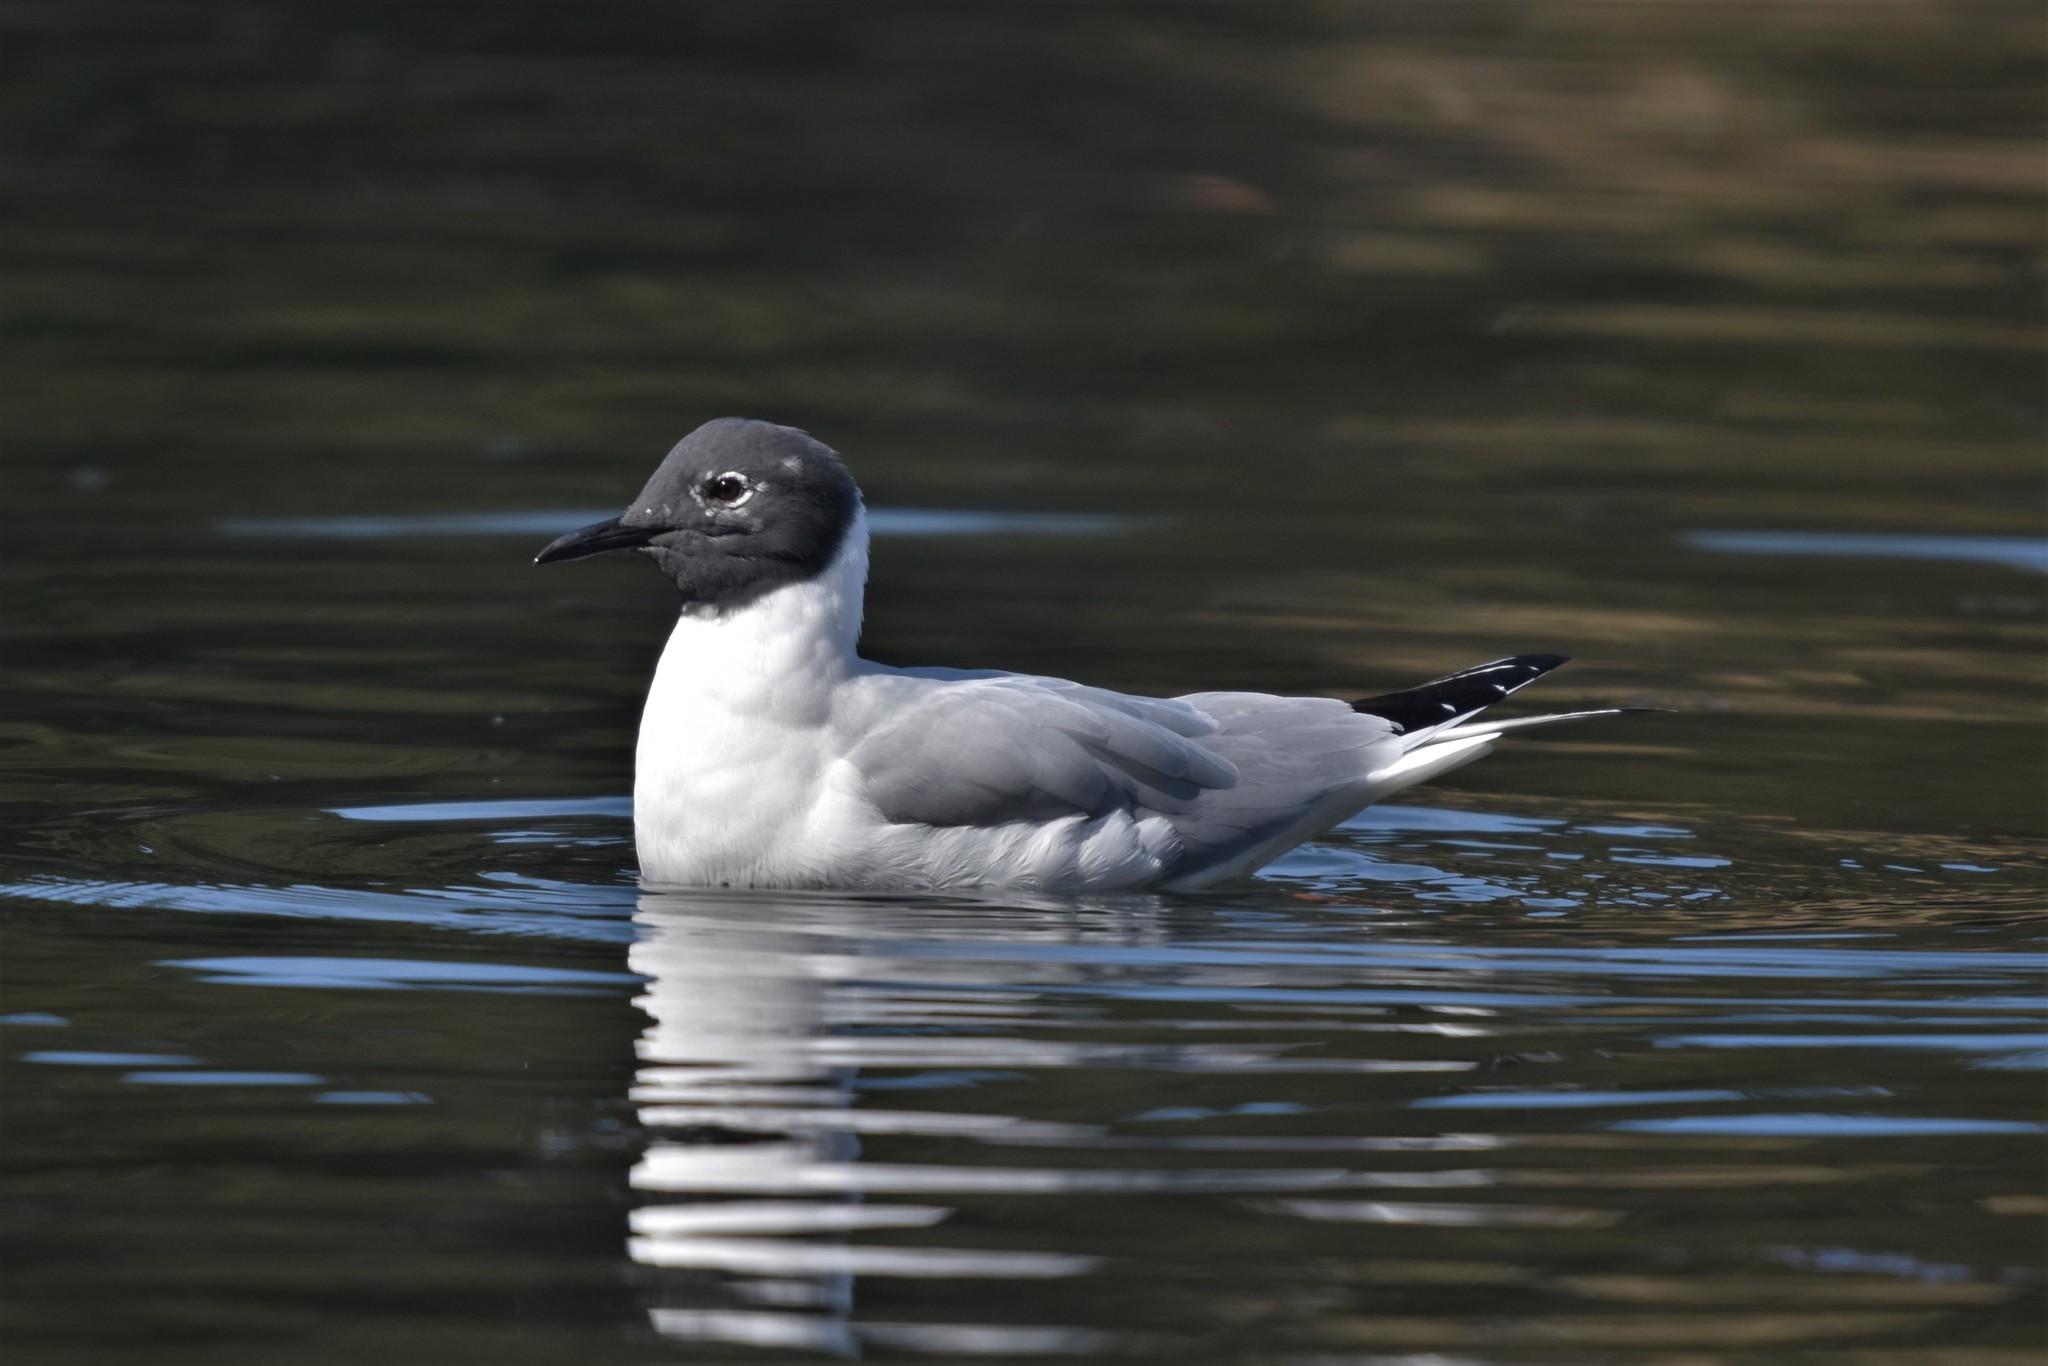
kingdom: Animalia
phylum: Chordata
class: Aves
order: Charadriiformes
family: Laridae
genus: Chroicocephalus
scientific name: Chroicocephalus philadelphia
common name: Bonaparte's gull
